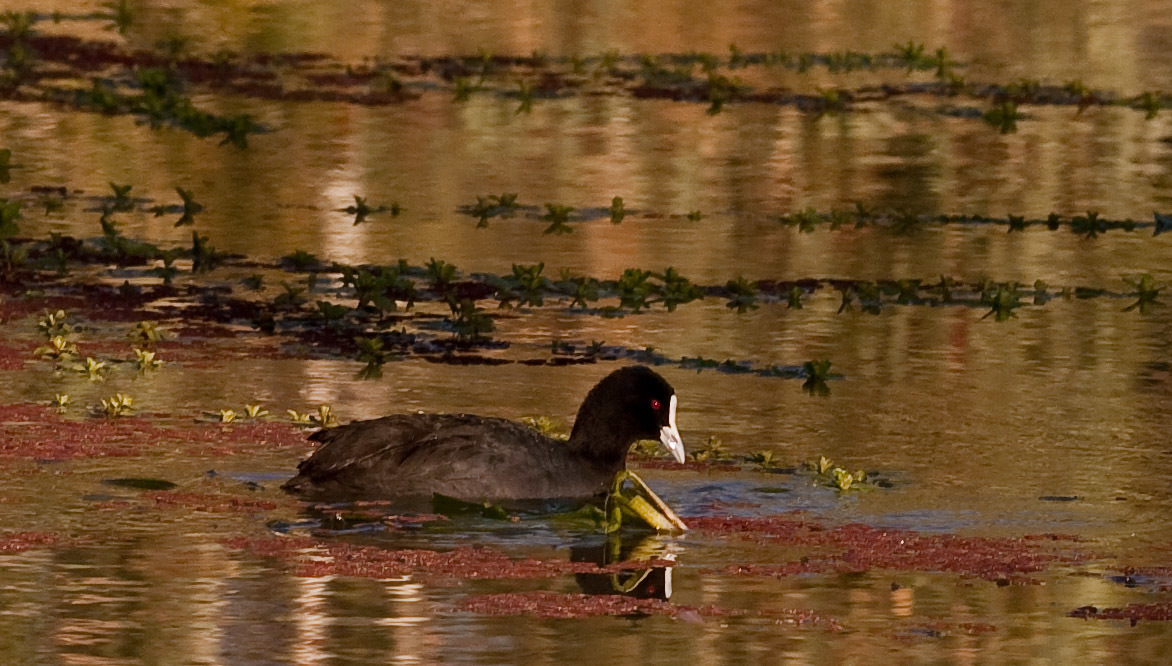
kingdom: Animalia
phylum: Chordata
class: Aves
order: Gruiformes
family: Rallidae
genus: Fulica
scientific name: Fulica atra
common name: Eurasian coot
